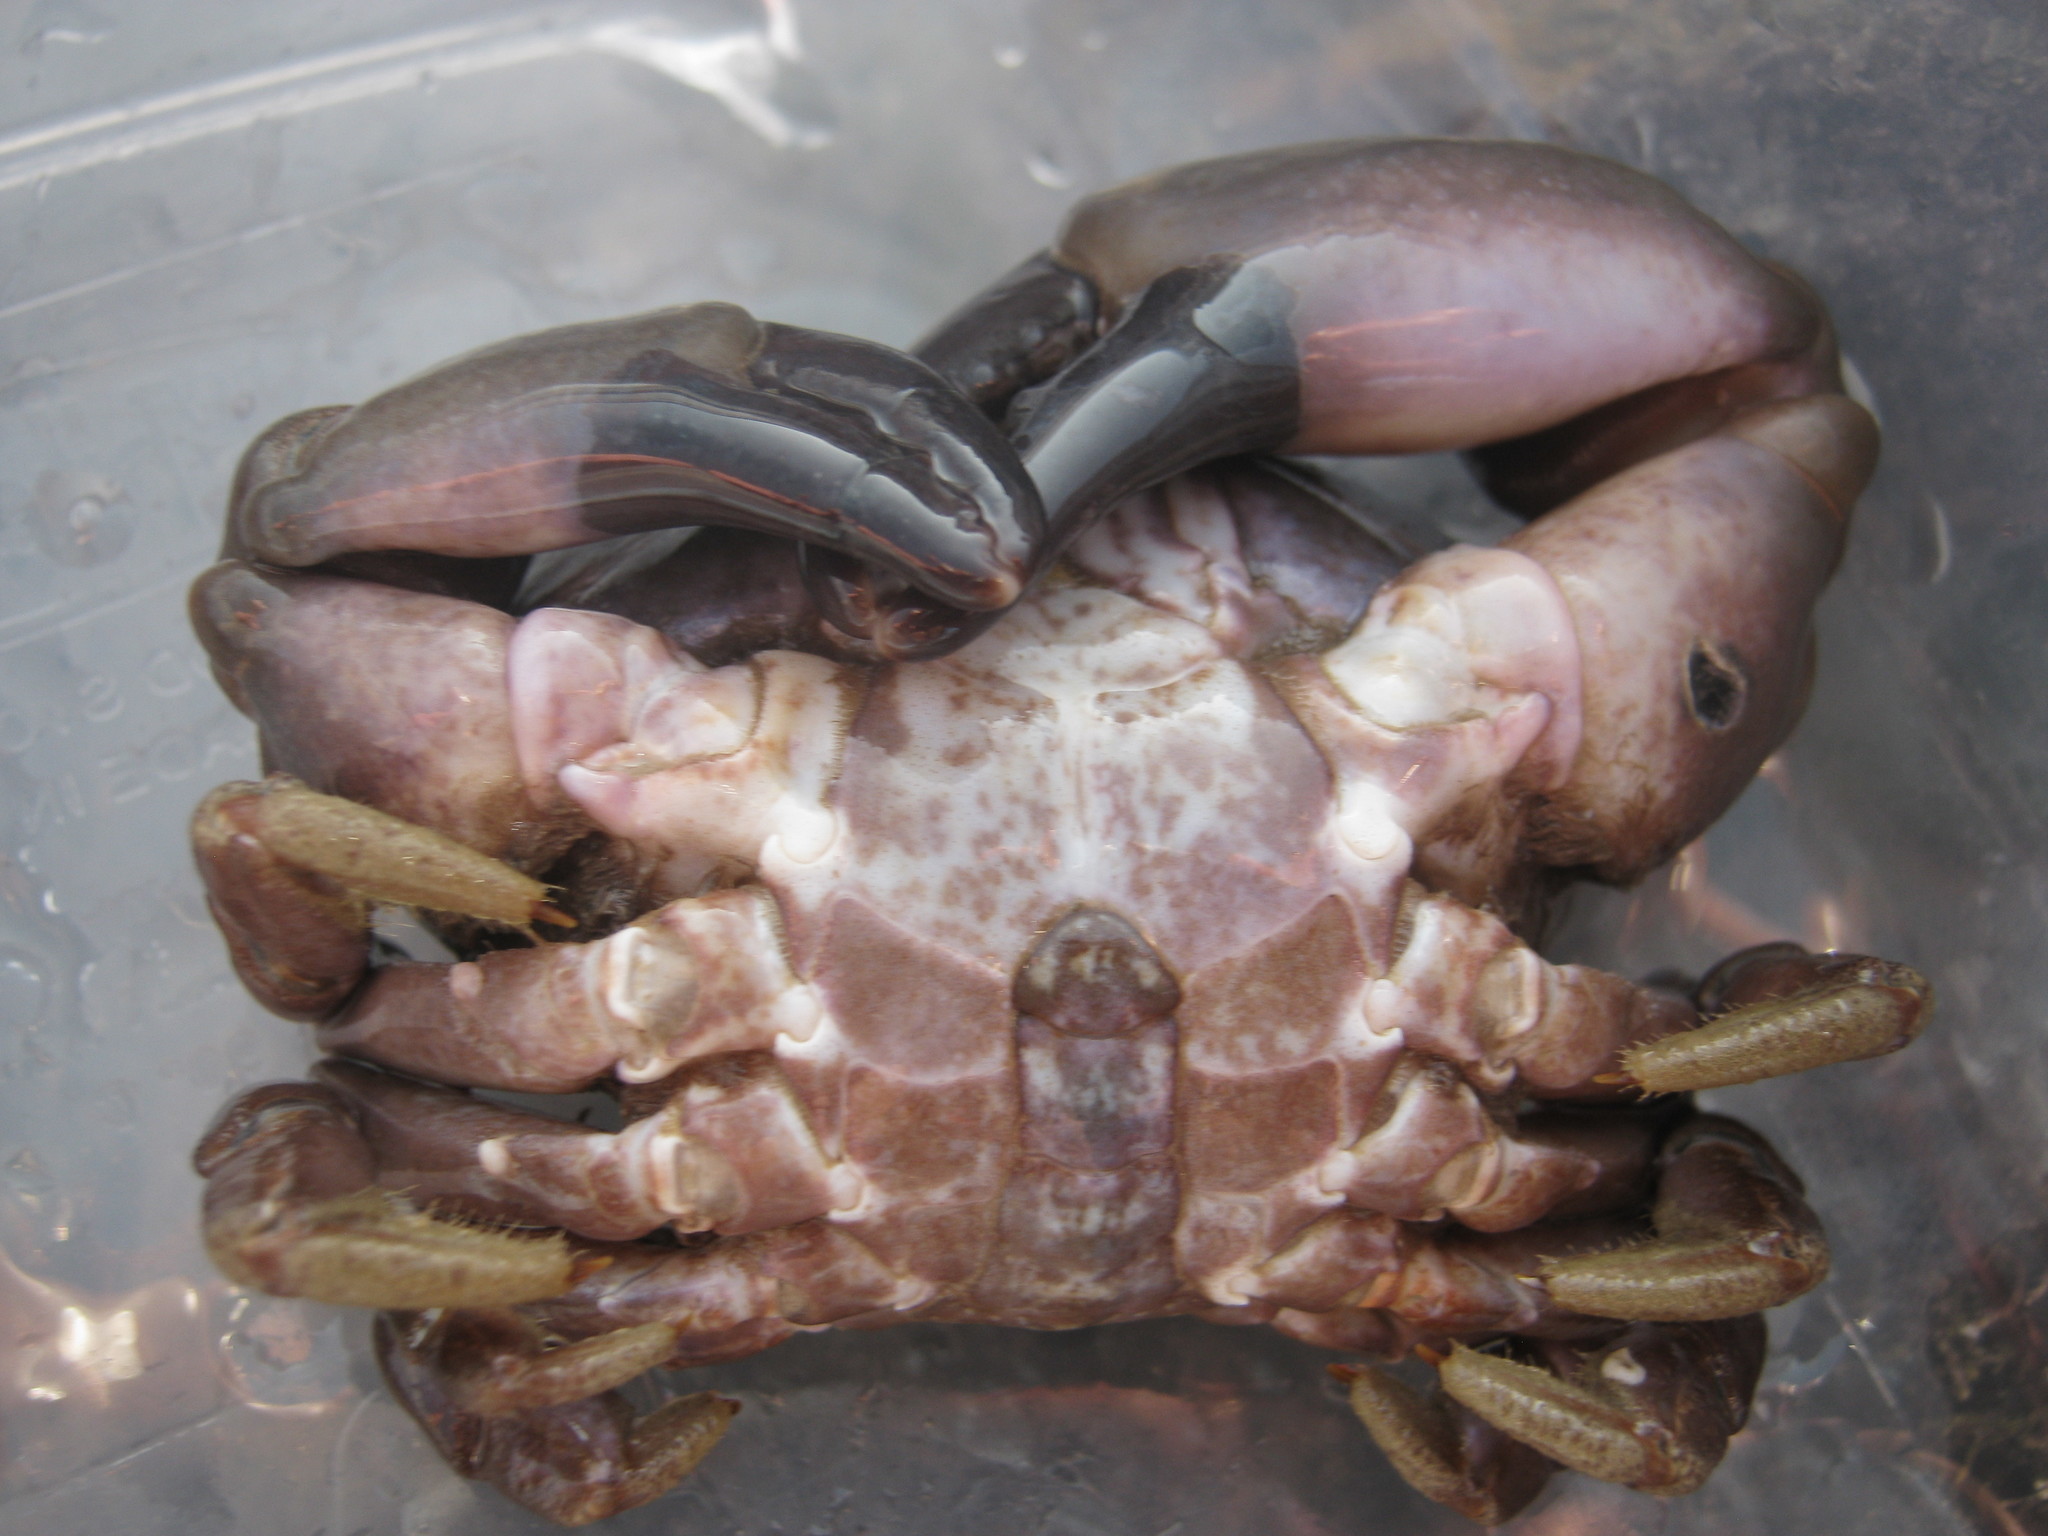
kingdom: Animalia
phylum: Arthropoda
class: Malacostraca
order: Decapoda
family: Xanthidae
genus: Xantho
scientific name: Xantho hydrophilus
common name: Montagu's crab
